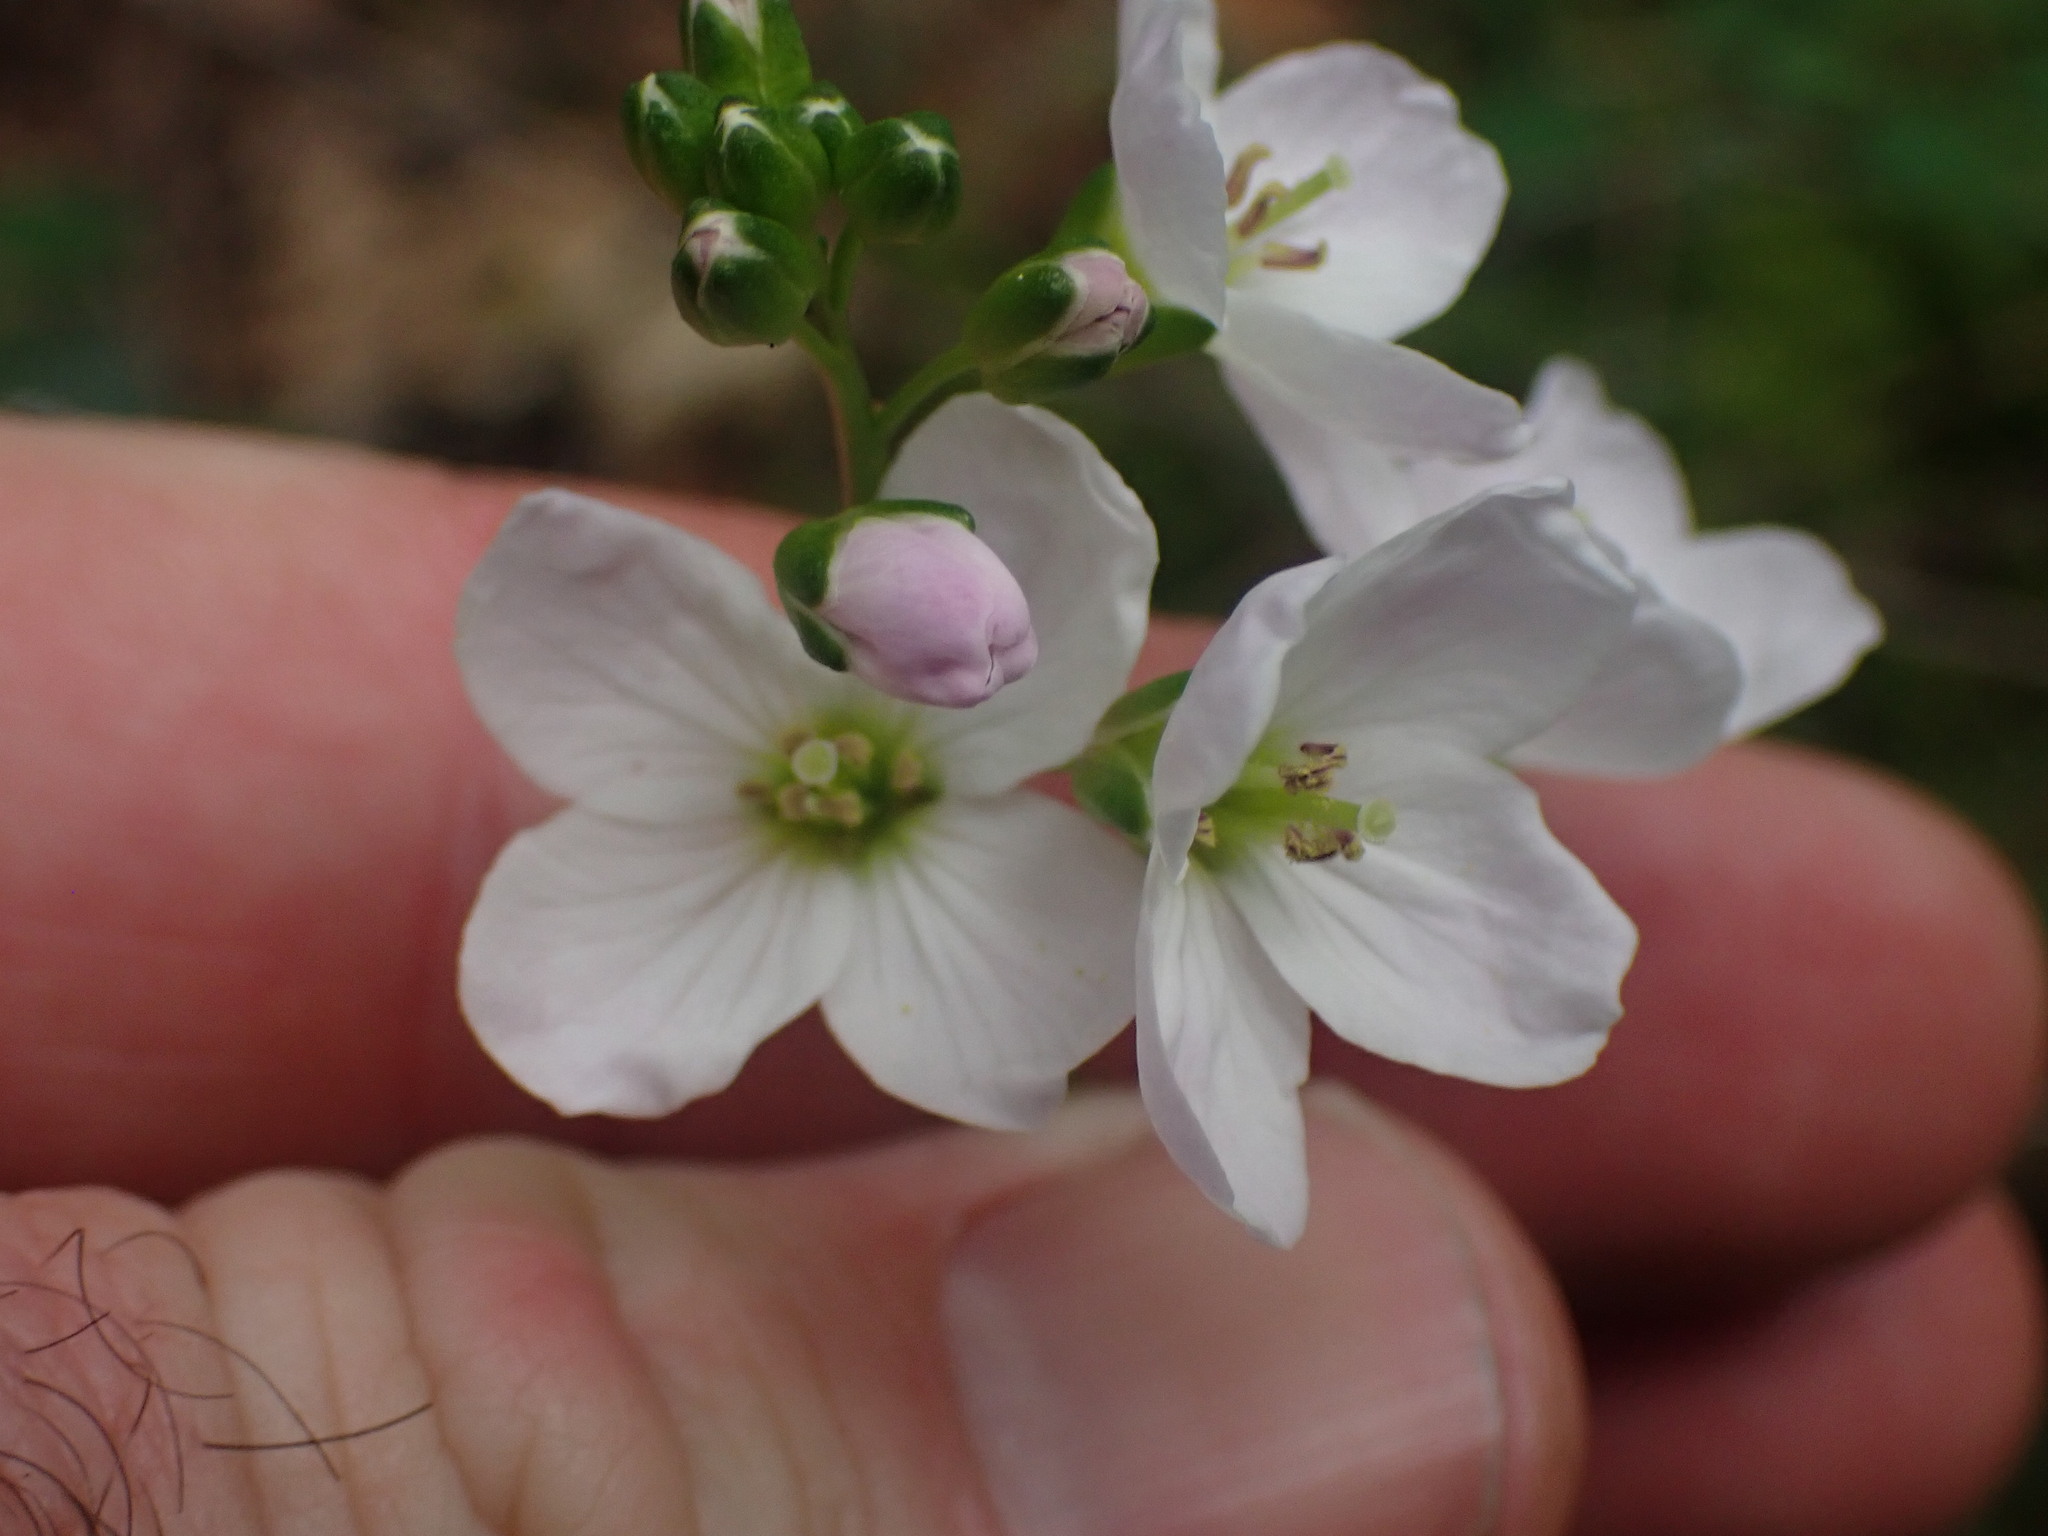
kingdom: Plantae
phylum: Tracheophyta
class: Magnoliopsida
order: Brassicales
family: Brassicaceae
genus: Cardamine
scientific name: Cardamine nuttallii
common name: Nuttall's toothwort
